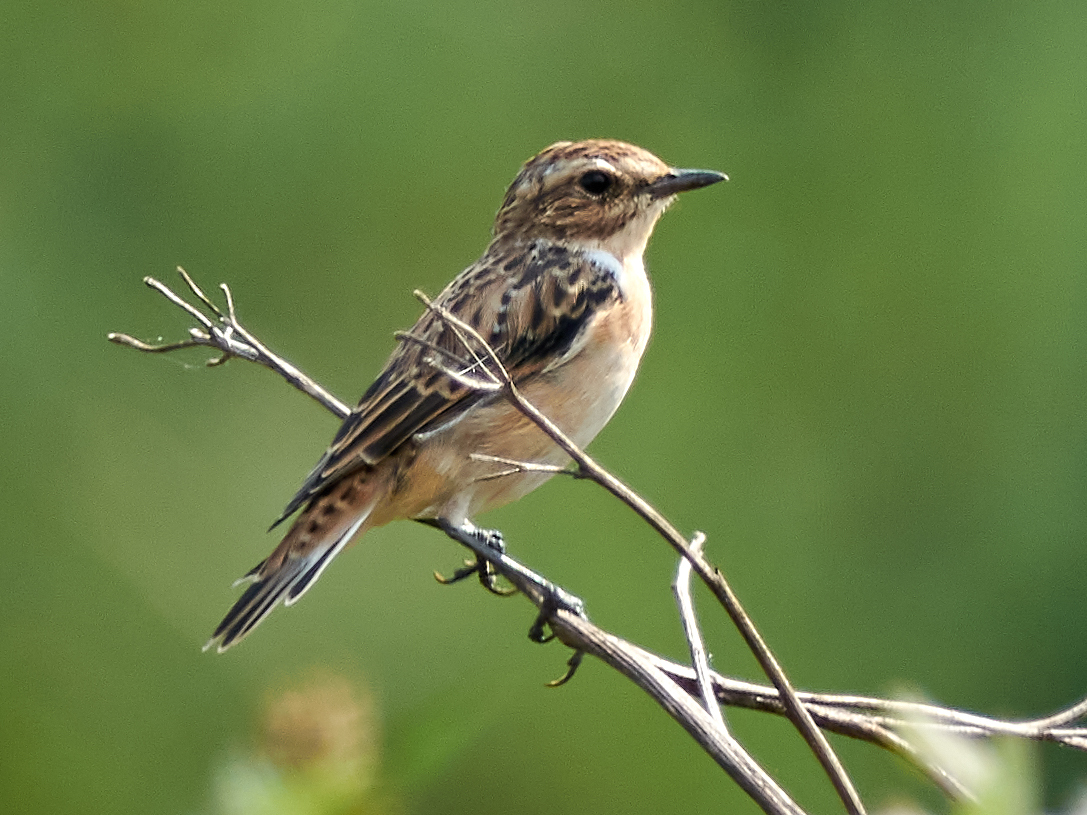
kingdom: Animalia
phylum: Chordata
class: Aves
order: Passeriformes
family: Muscicapidae
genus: Saxicola
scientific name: Saxicola rubetra
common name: Whinchat
